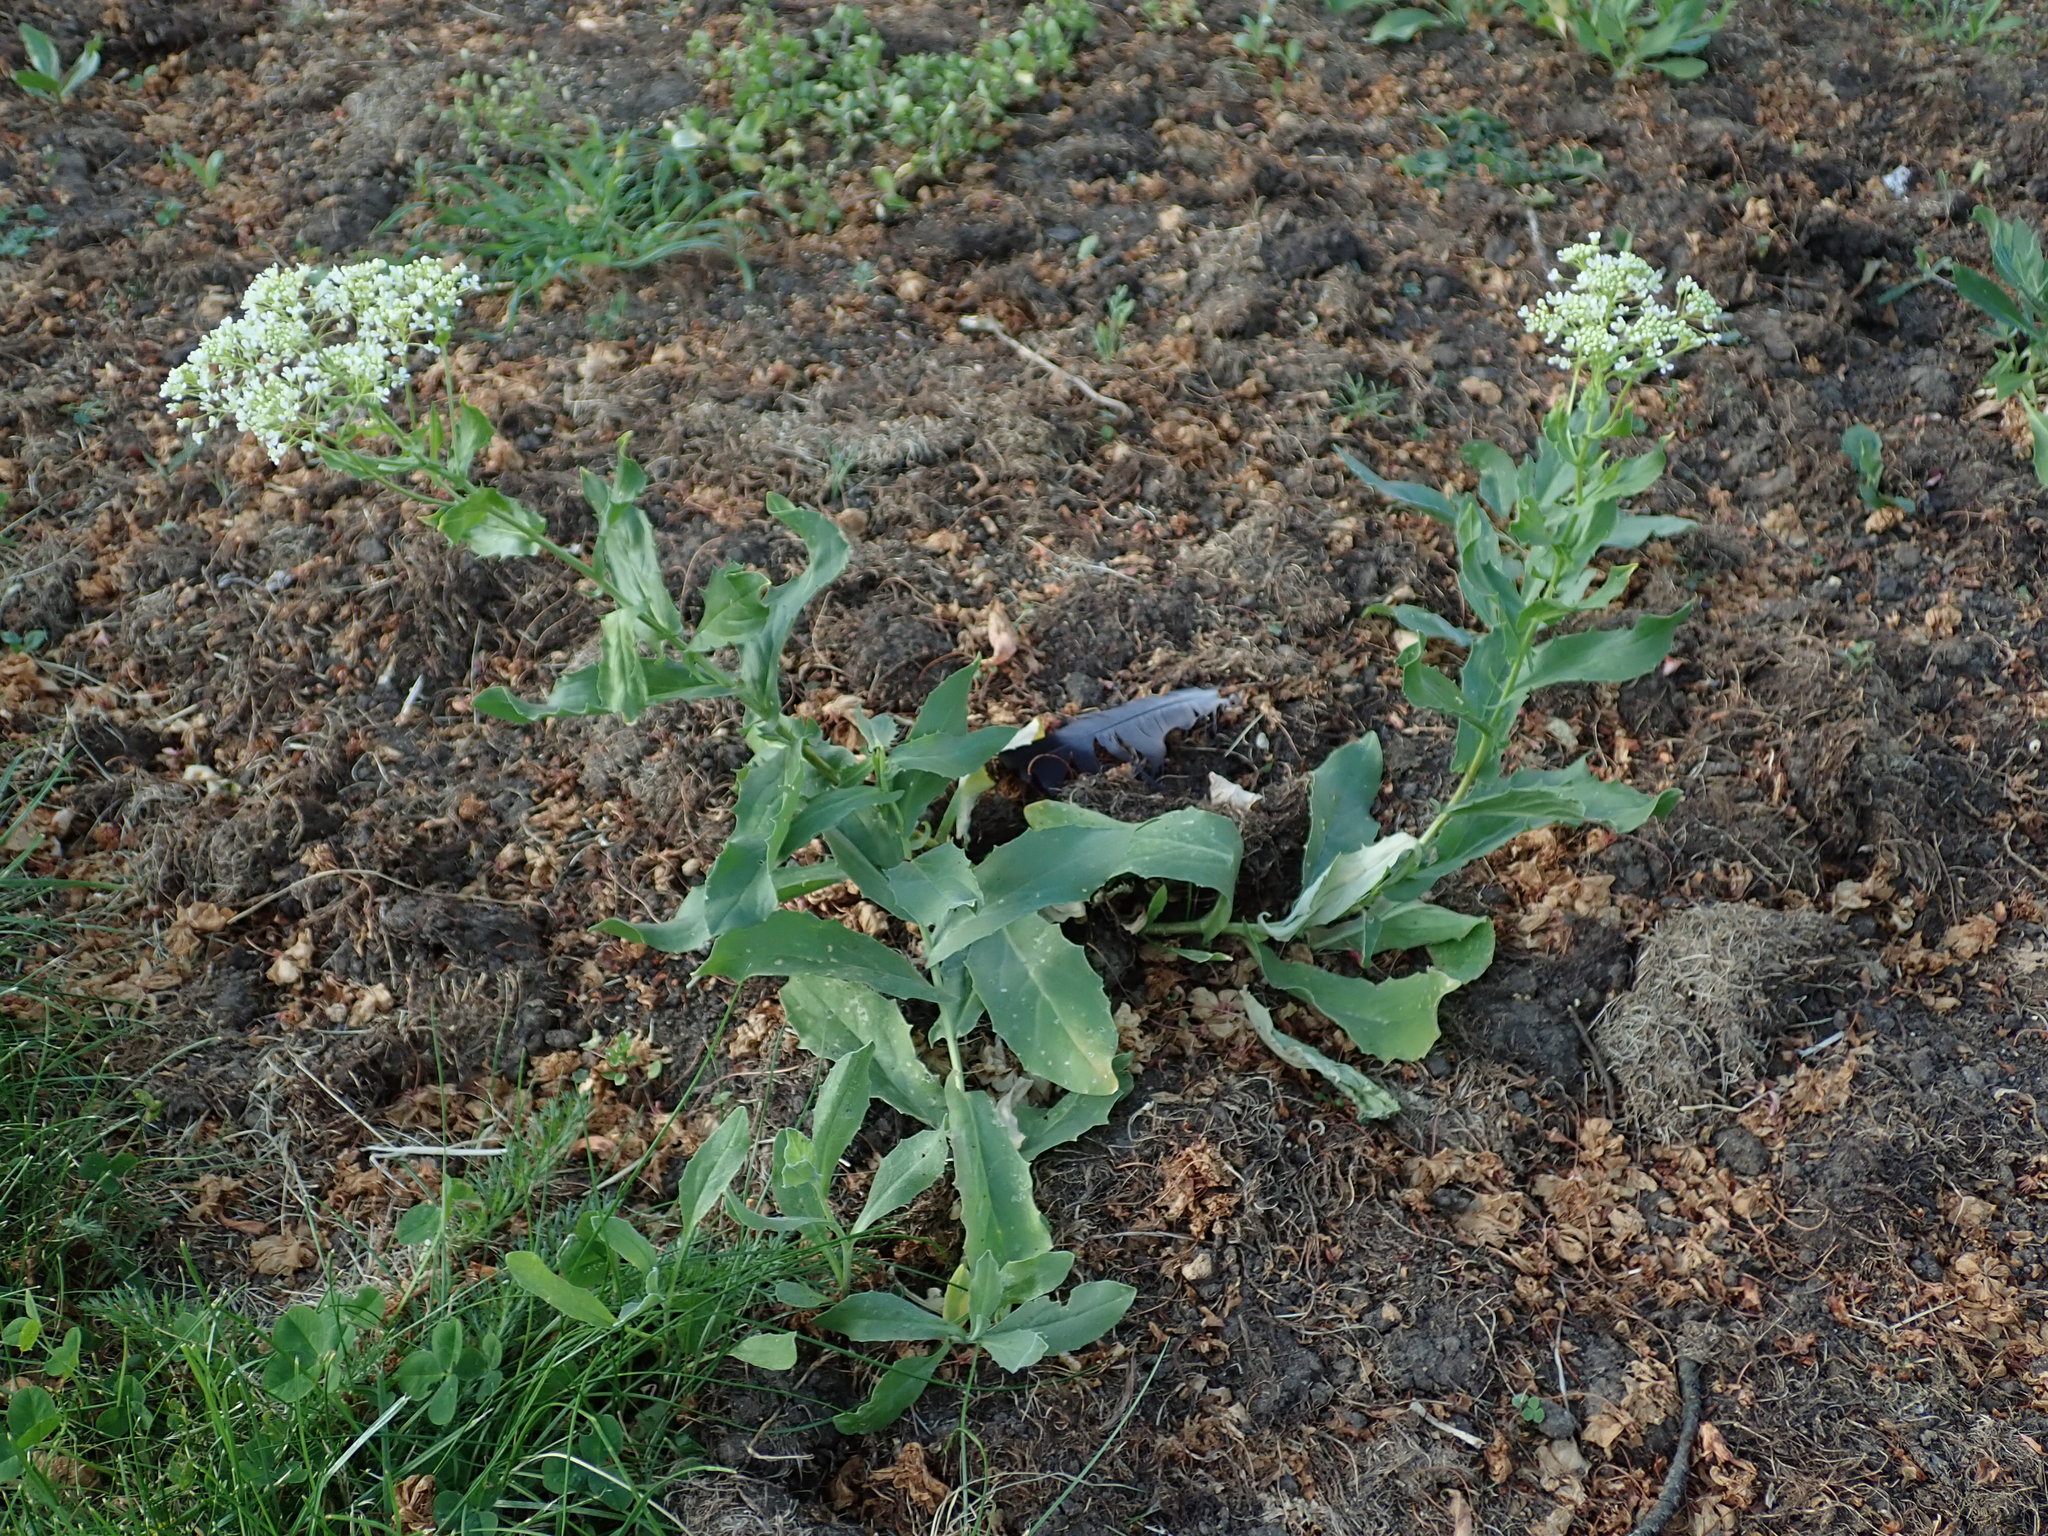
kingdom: Plantae
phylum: Tracheophyta
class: Magnoliopsida
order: Brassicales
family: Brassicaceae
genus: Lepidium
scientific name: Lepidium draba
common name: Hoary cress
